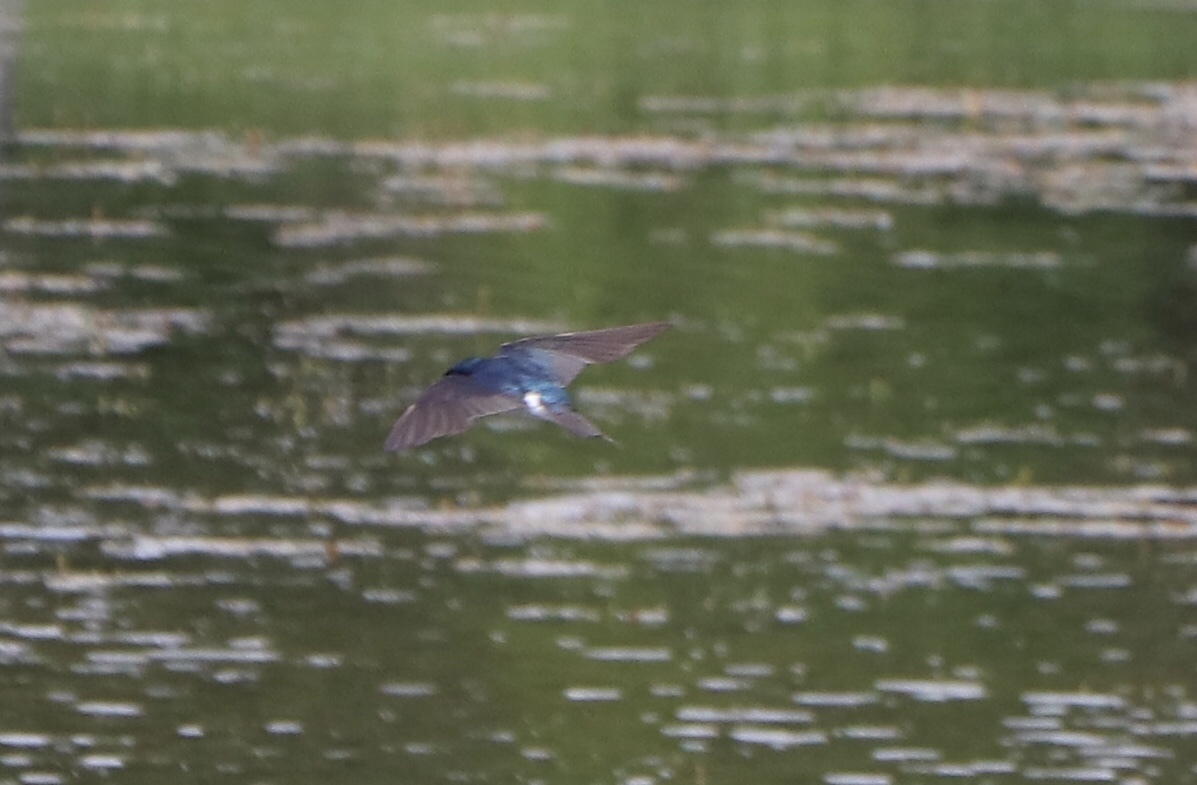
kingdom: Animalia
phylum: Chordata
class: Aves
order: Passeriformes
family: Hirundinidae
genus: Tachycineta
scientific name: Tachycineta bicolor
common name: Tree swallow
